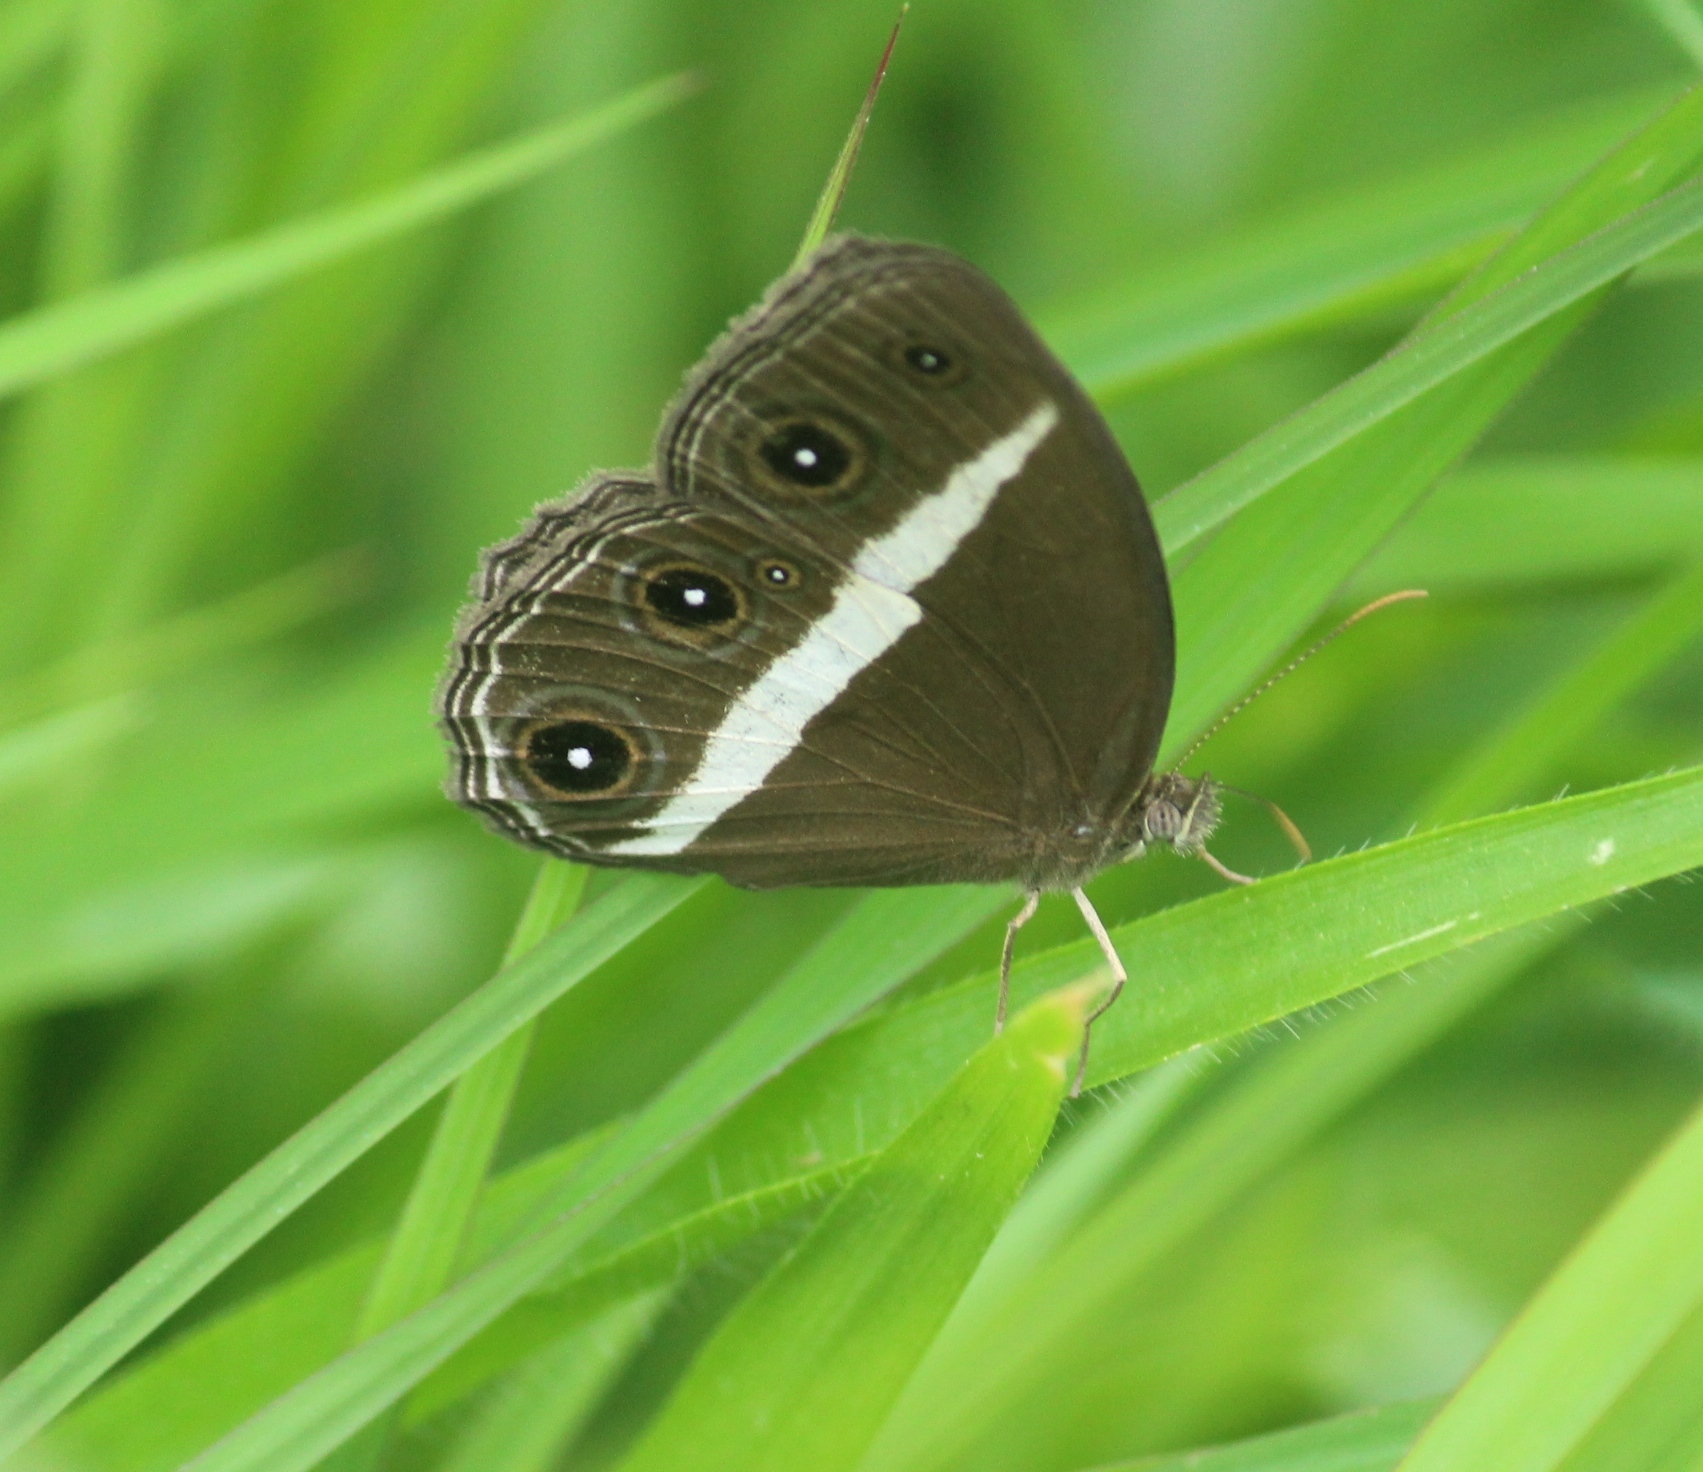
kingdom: Animalia
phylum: Arthropoda
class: Insecta
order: Lepidoptera
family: Nymphalidae
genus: Orsotriaena
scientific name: Orsotriaena medus
